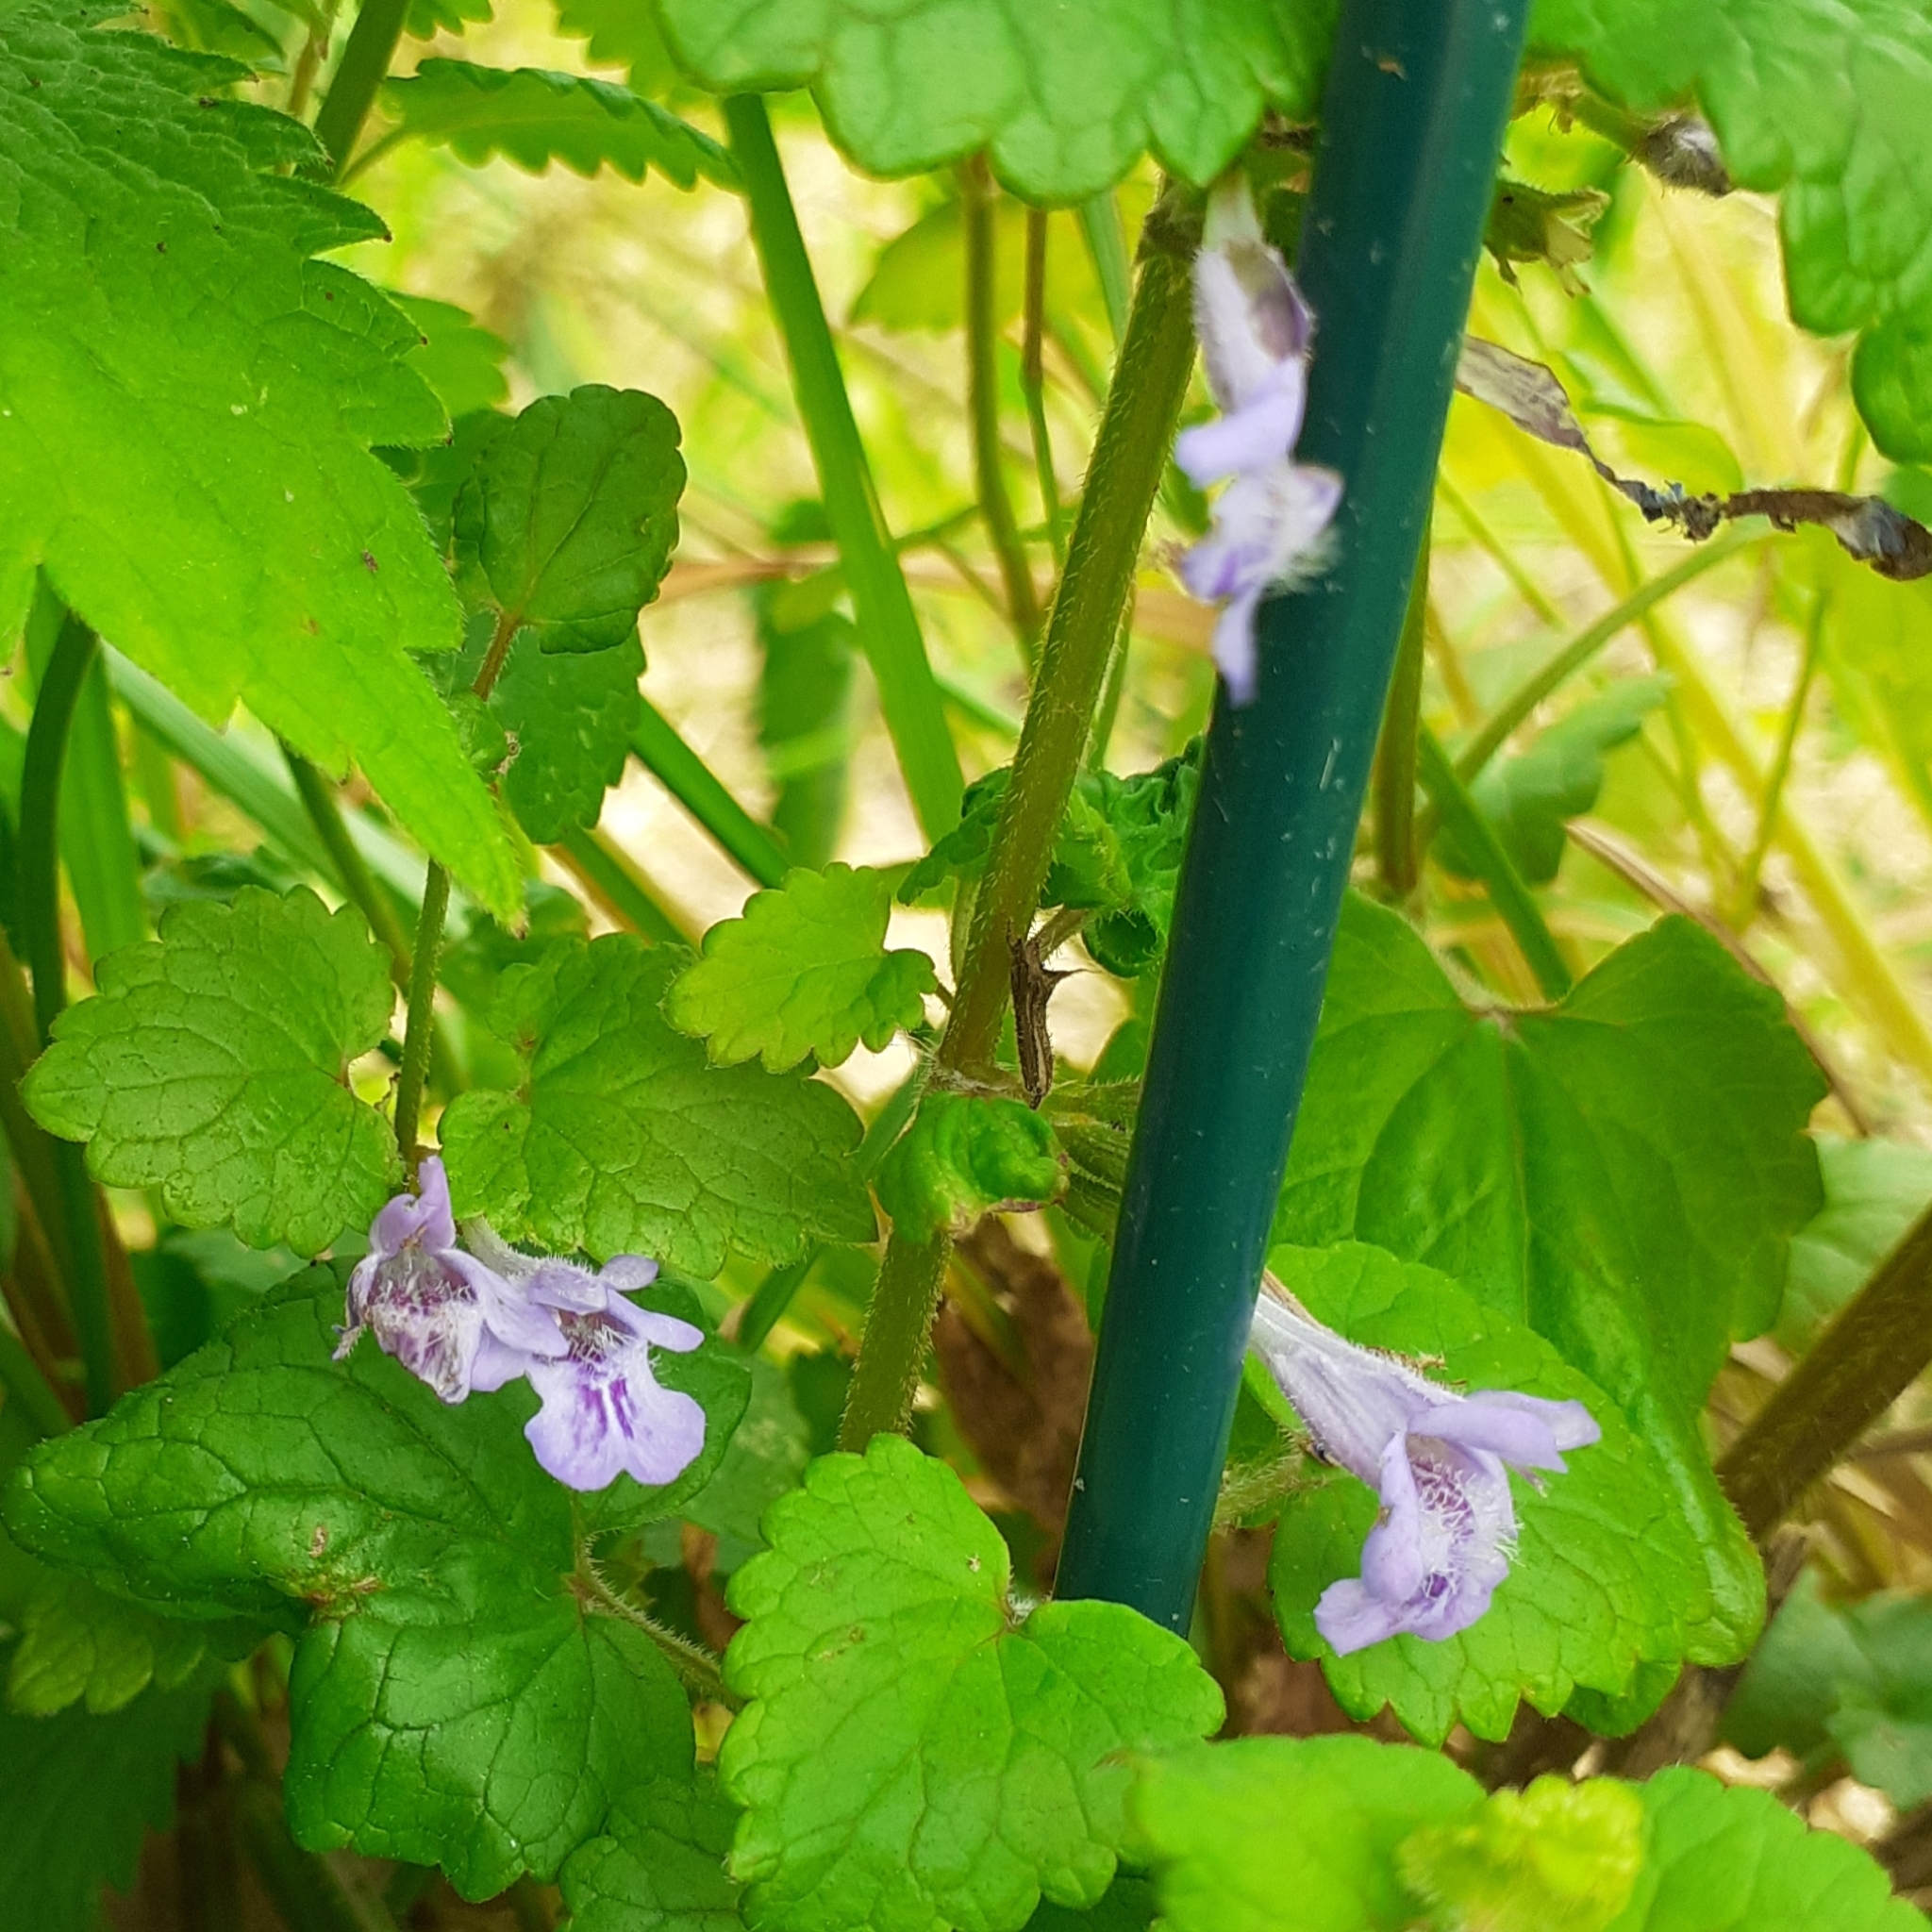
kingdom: Plantae
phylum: Tracheophyta
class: Magnoliopsida
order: Lamiales
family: Lamiaceae
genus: Glechoma
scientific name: Glechoma hederacea
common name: Ground ivy
